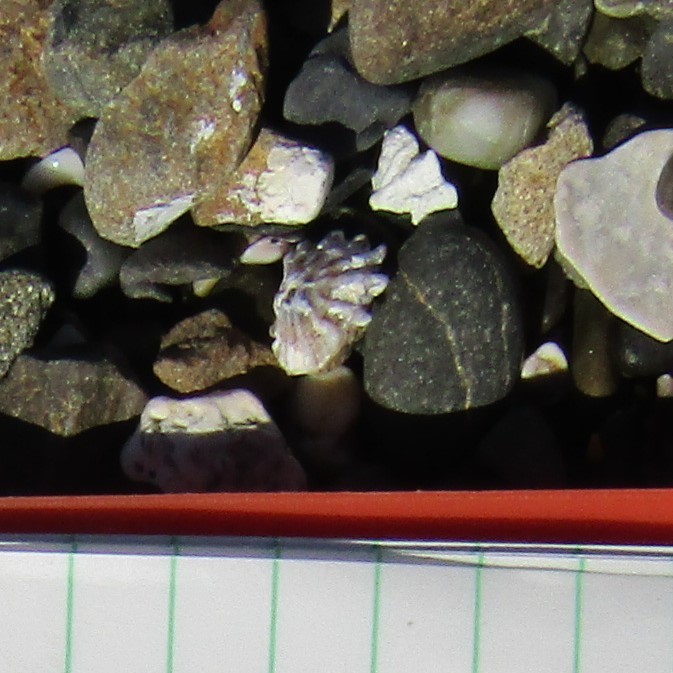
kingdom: Animalia
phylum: Mollusca
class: Gastropoda
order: Siphonariida
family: Siphonariidae
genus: Siphonaria
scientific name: Siphonaria australis
